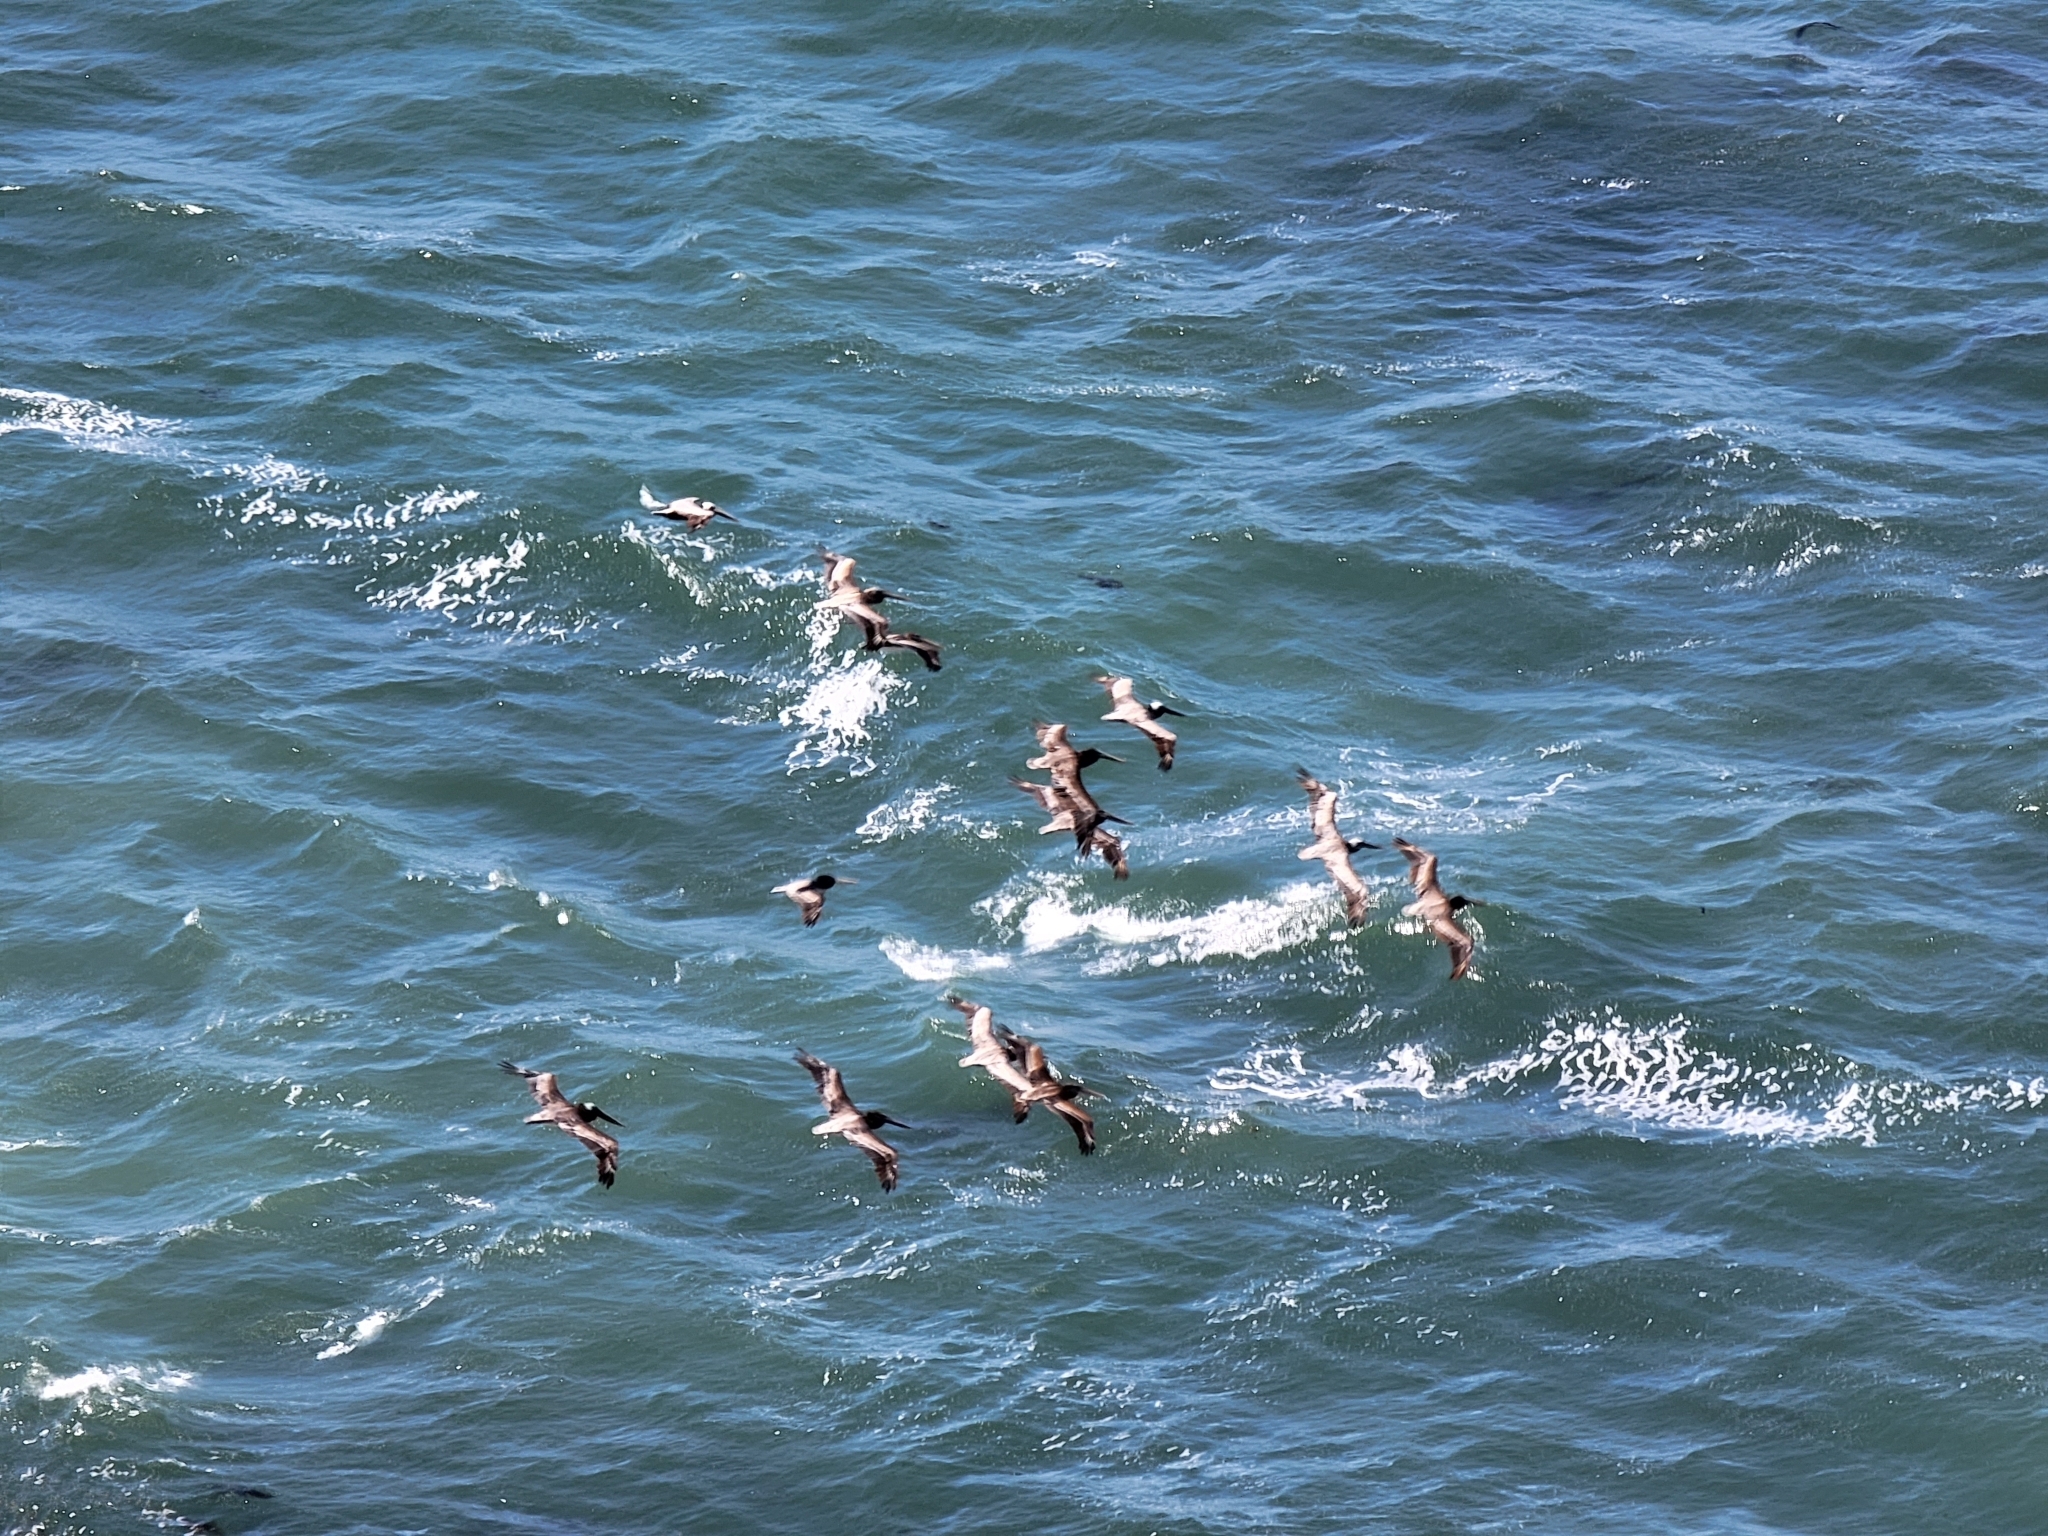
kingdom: Animalia
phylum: Chordata
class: Aves
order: Pelecaniformes
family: Pelecanidae
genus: Pelecanus
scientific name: Pelecanus occidentalis
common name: Brown pelican
